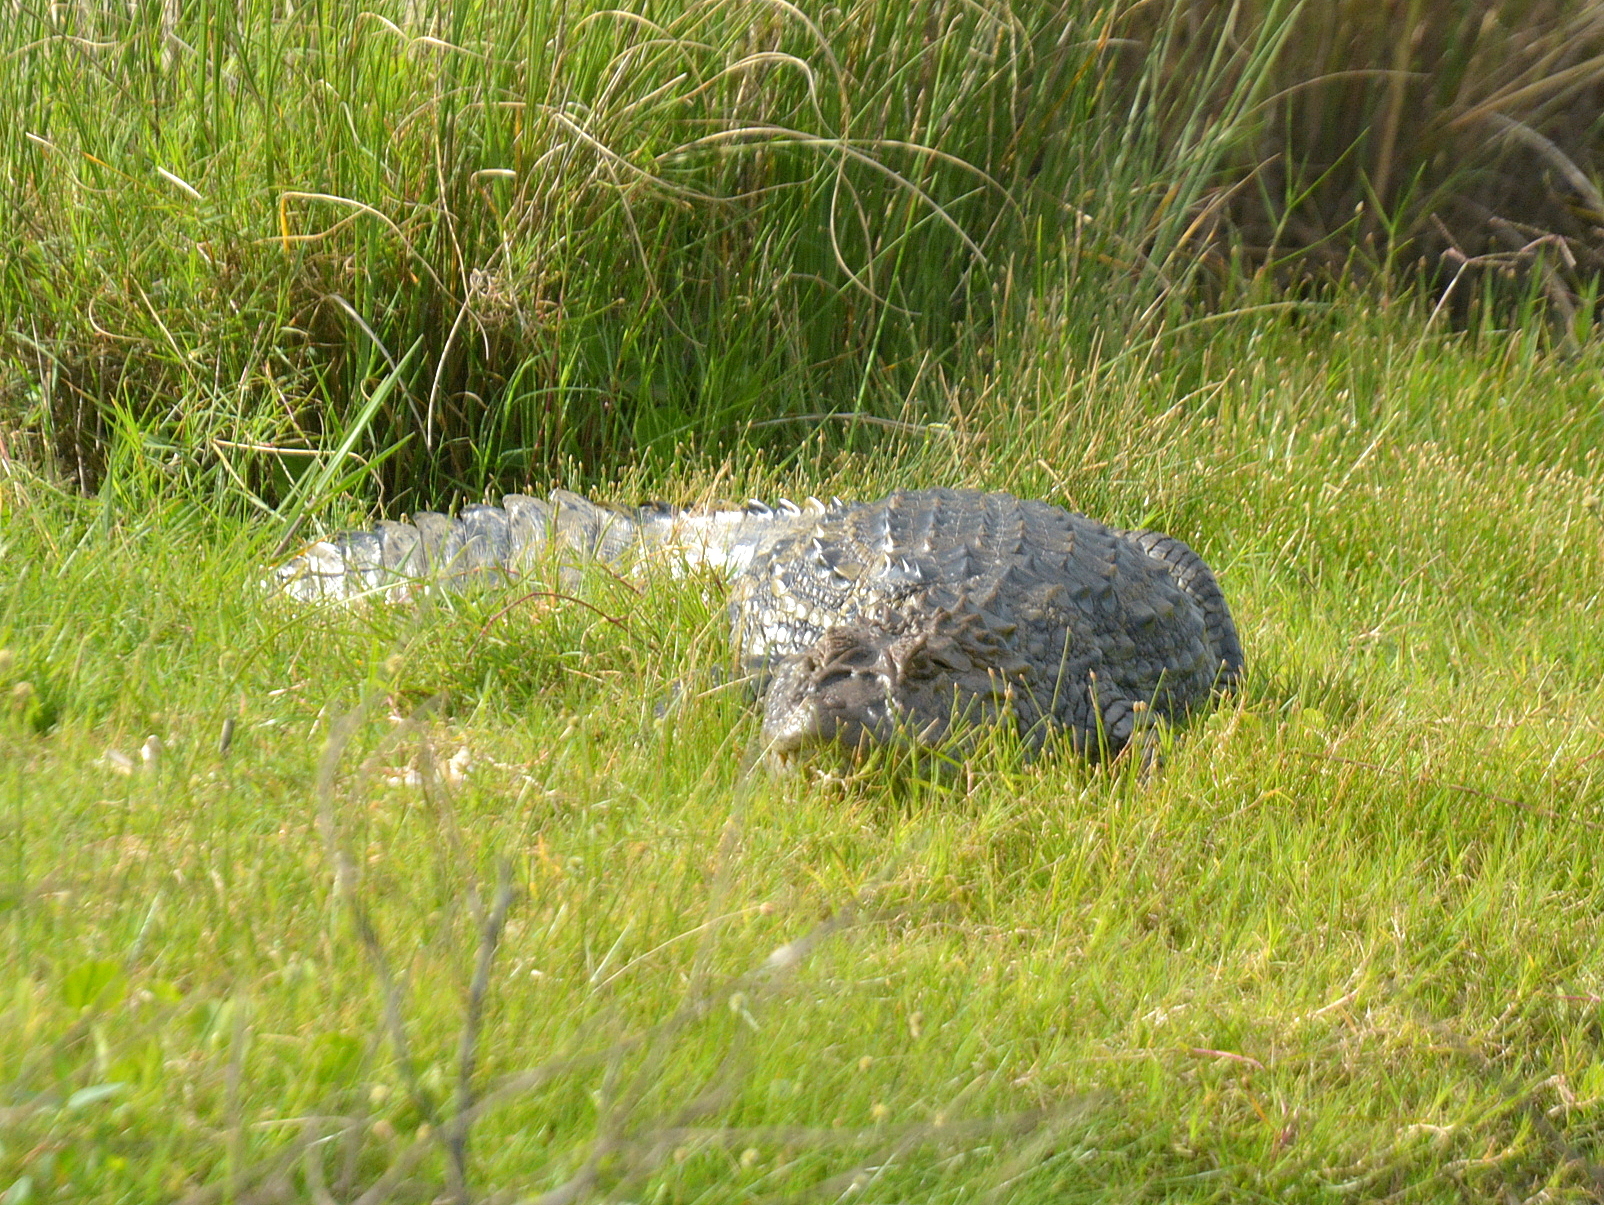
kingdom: Animalia
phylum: Chordata
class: Crocodylia
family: Alligatoridae
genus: Caiman
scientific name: Caiman latirostris
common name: Broad-snouted caiman
